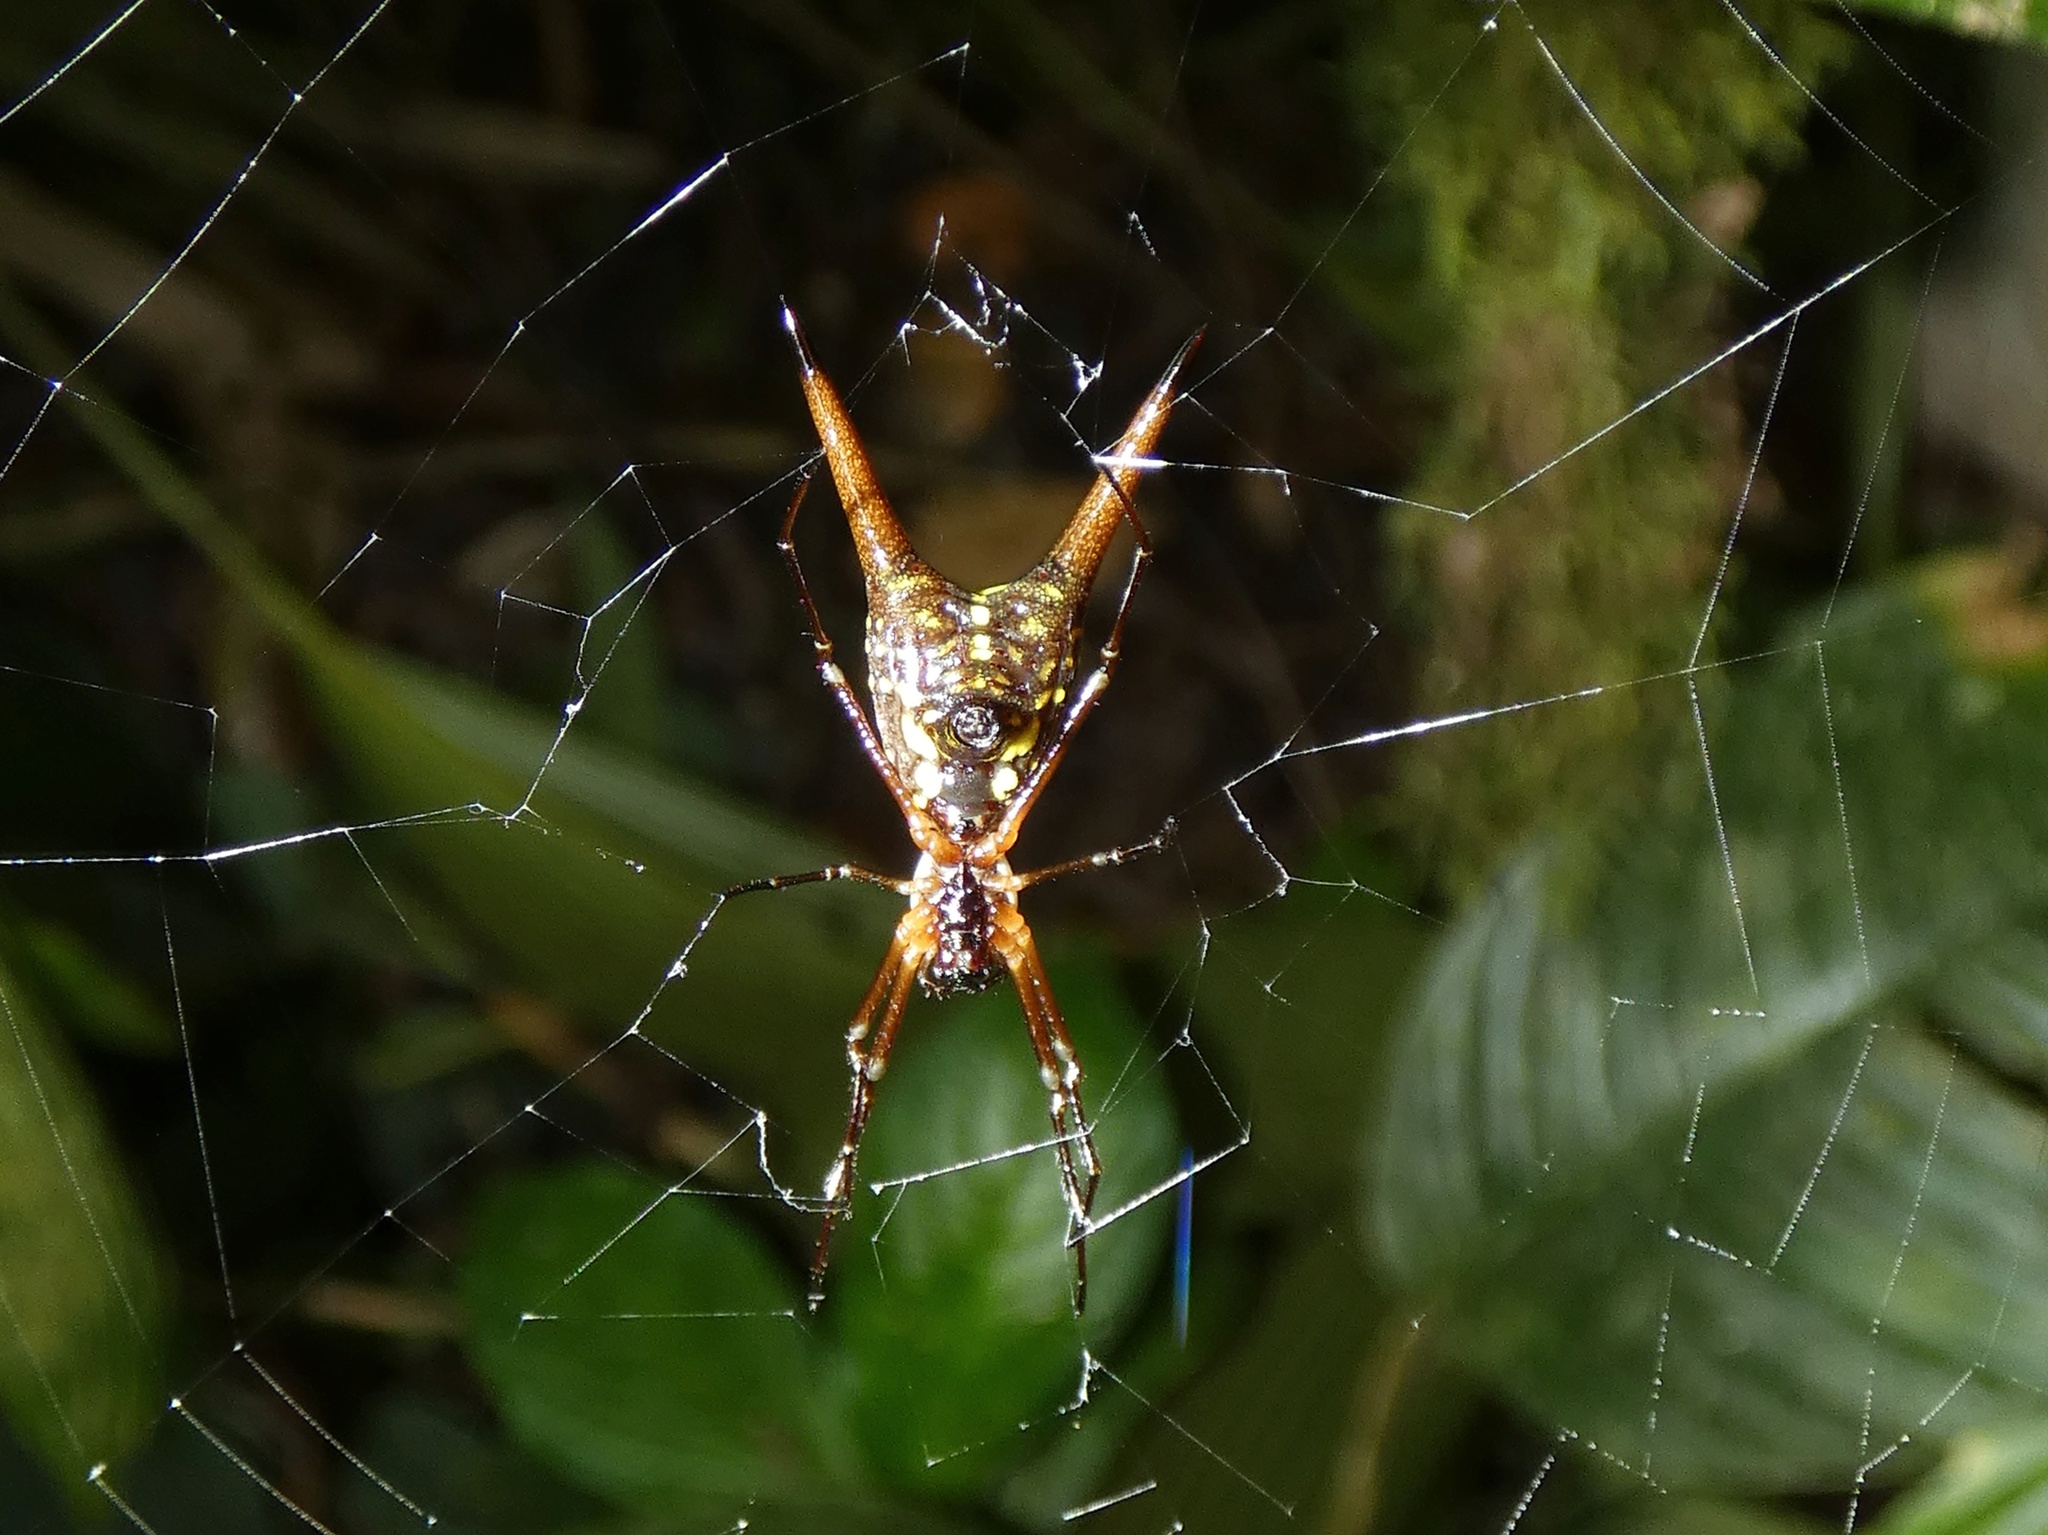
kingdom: Animalia
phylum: Arthropoda
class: Arachnida
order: Araneae
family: Araneidae
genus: Micrathena
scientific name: Micrathena brevipes
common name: Orb weavers
